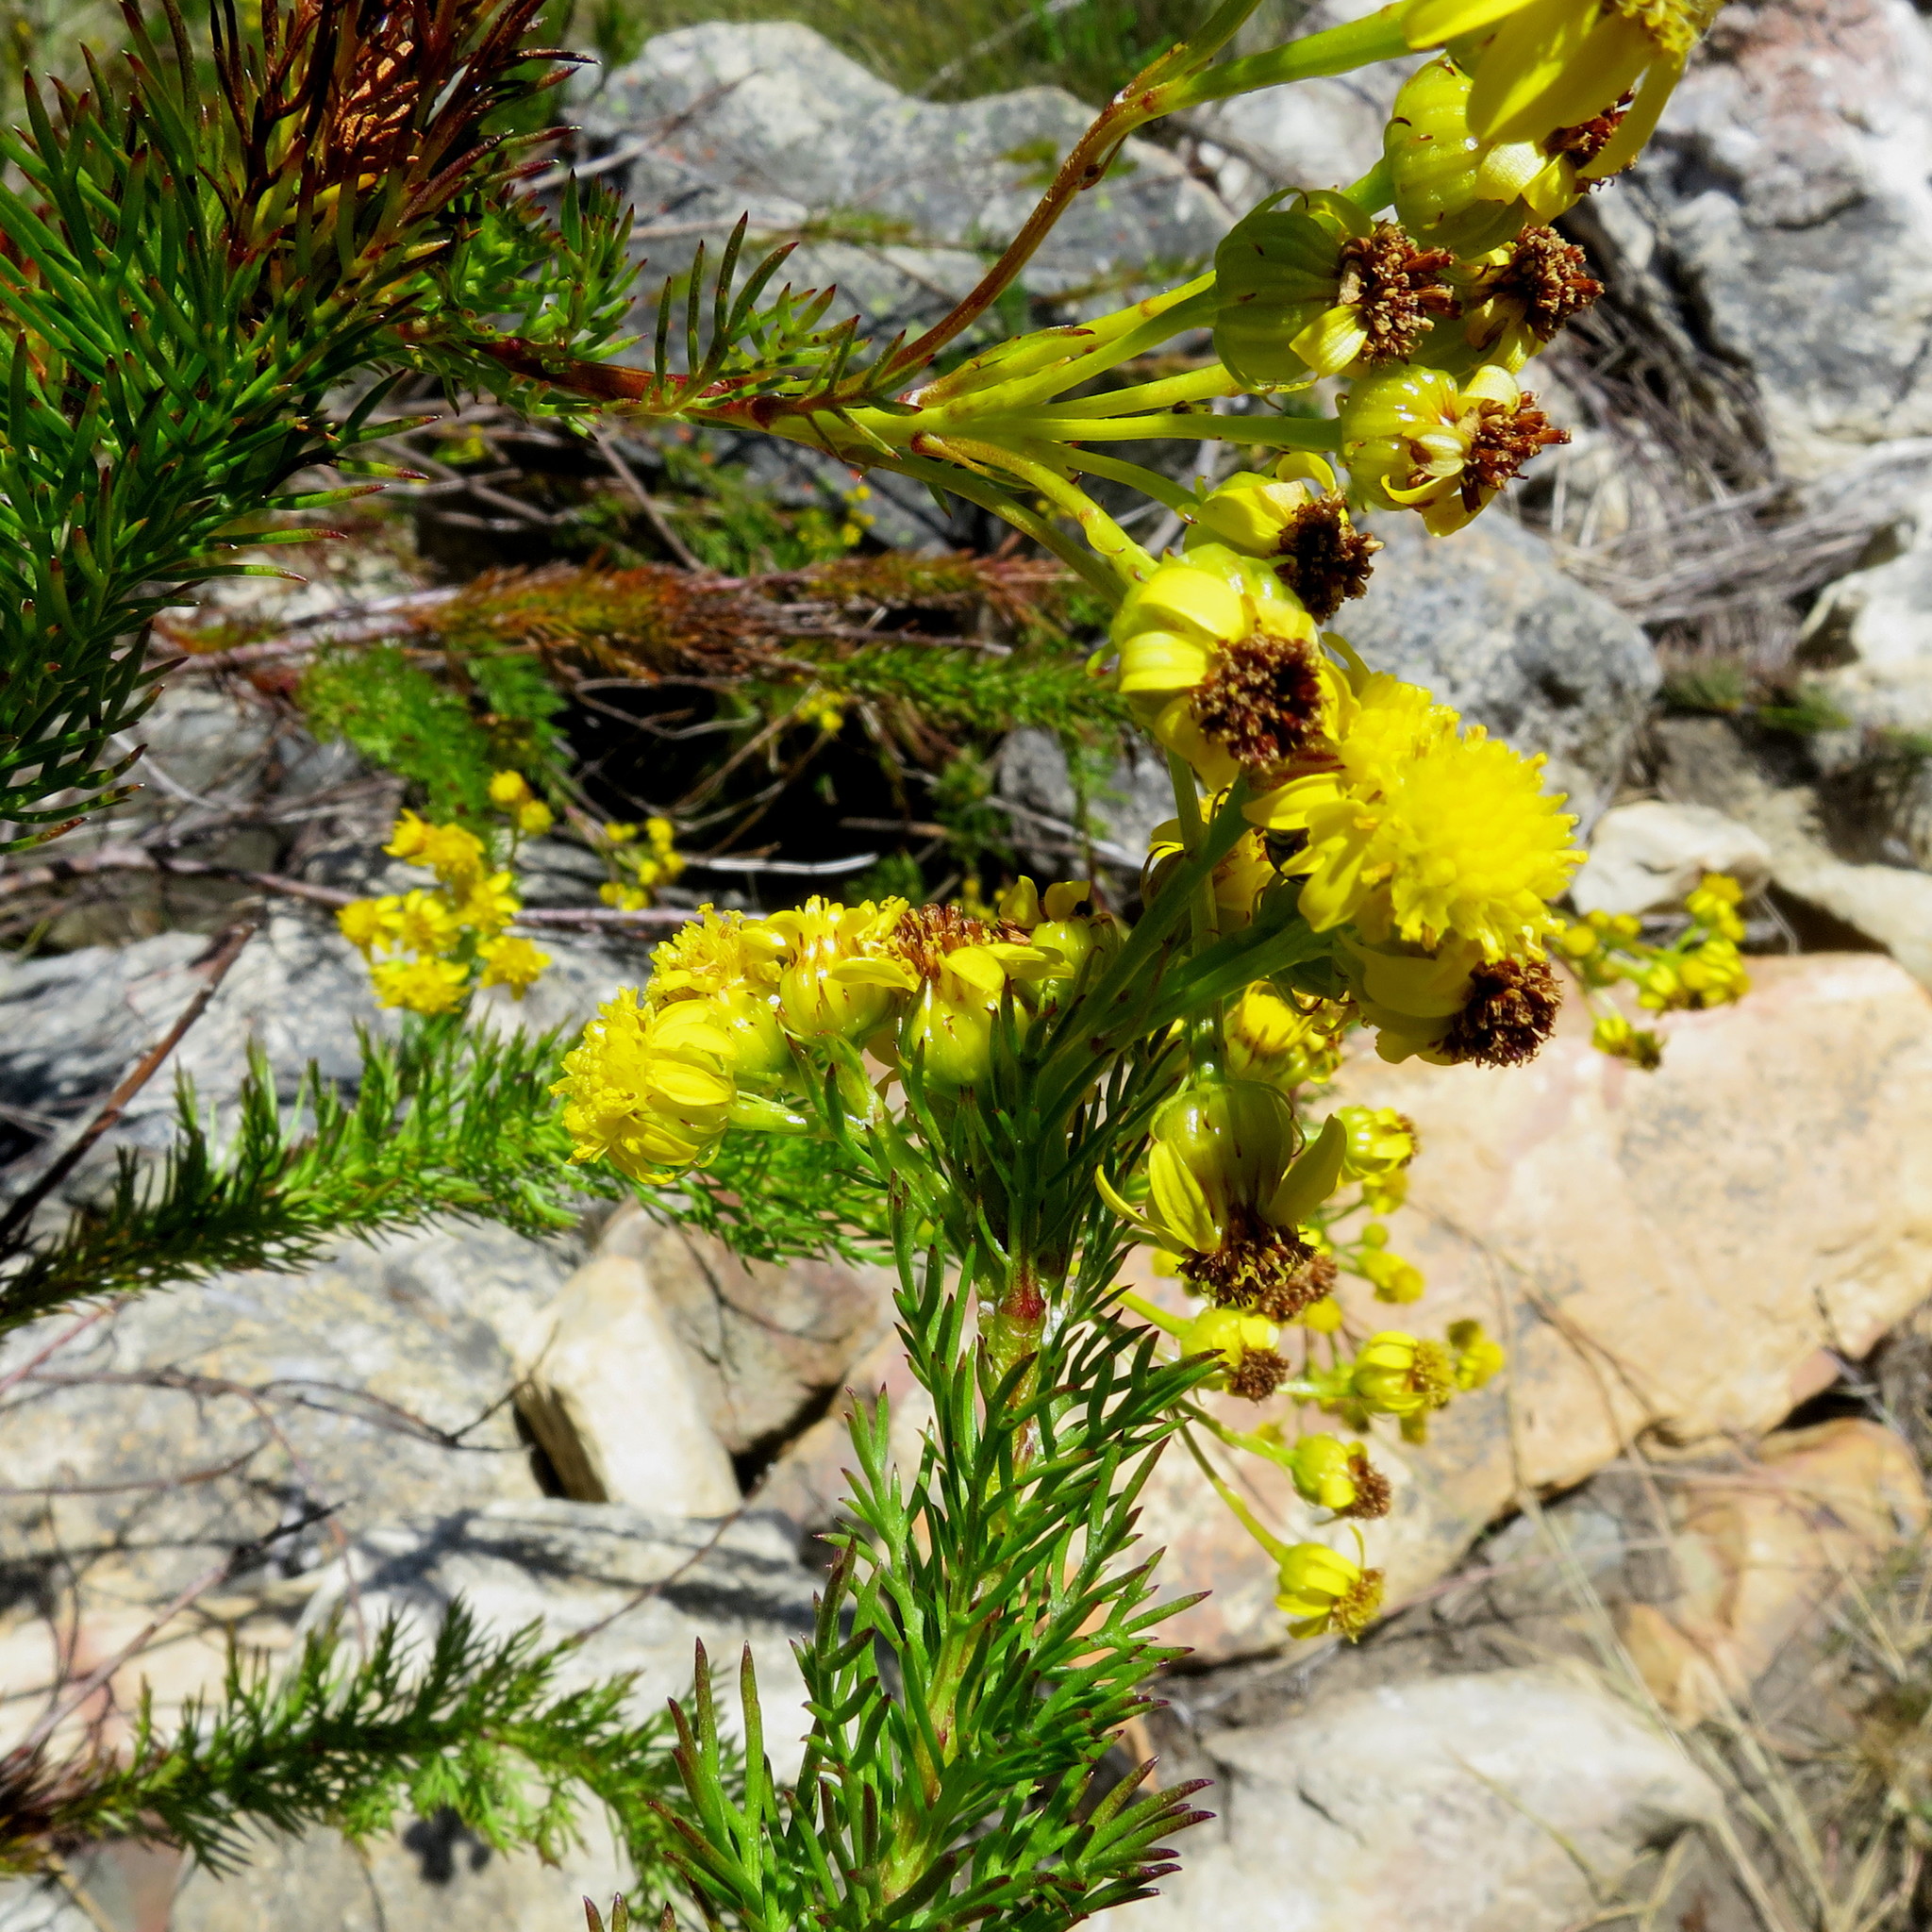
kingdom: Plantae
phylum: Tracheophyta
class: Magnoliopsida
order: Asterales
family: Asteraceae
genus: Senecio
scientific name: Senecio euriopoides
